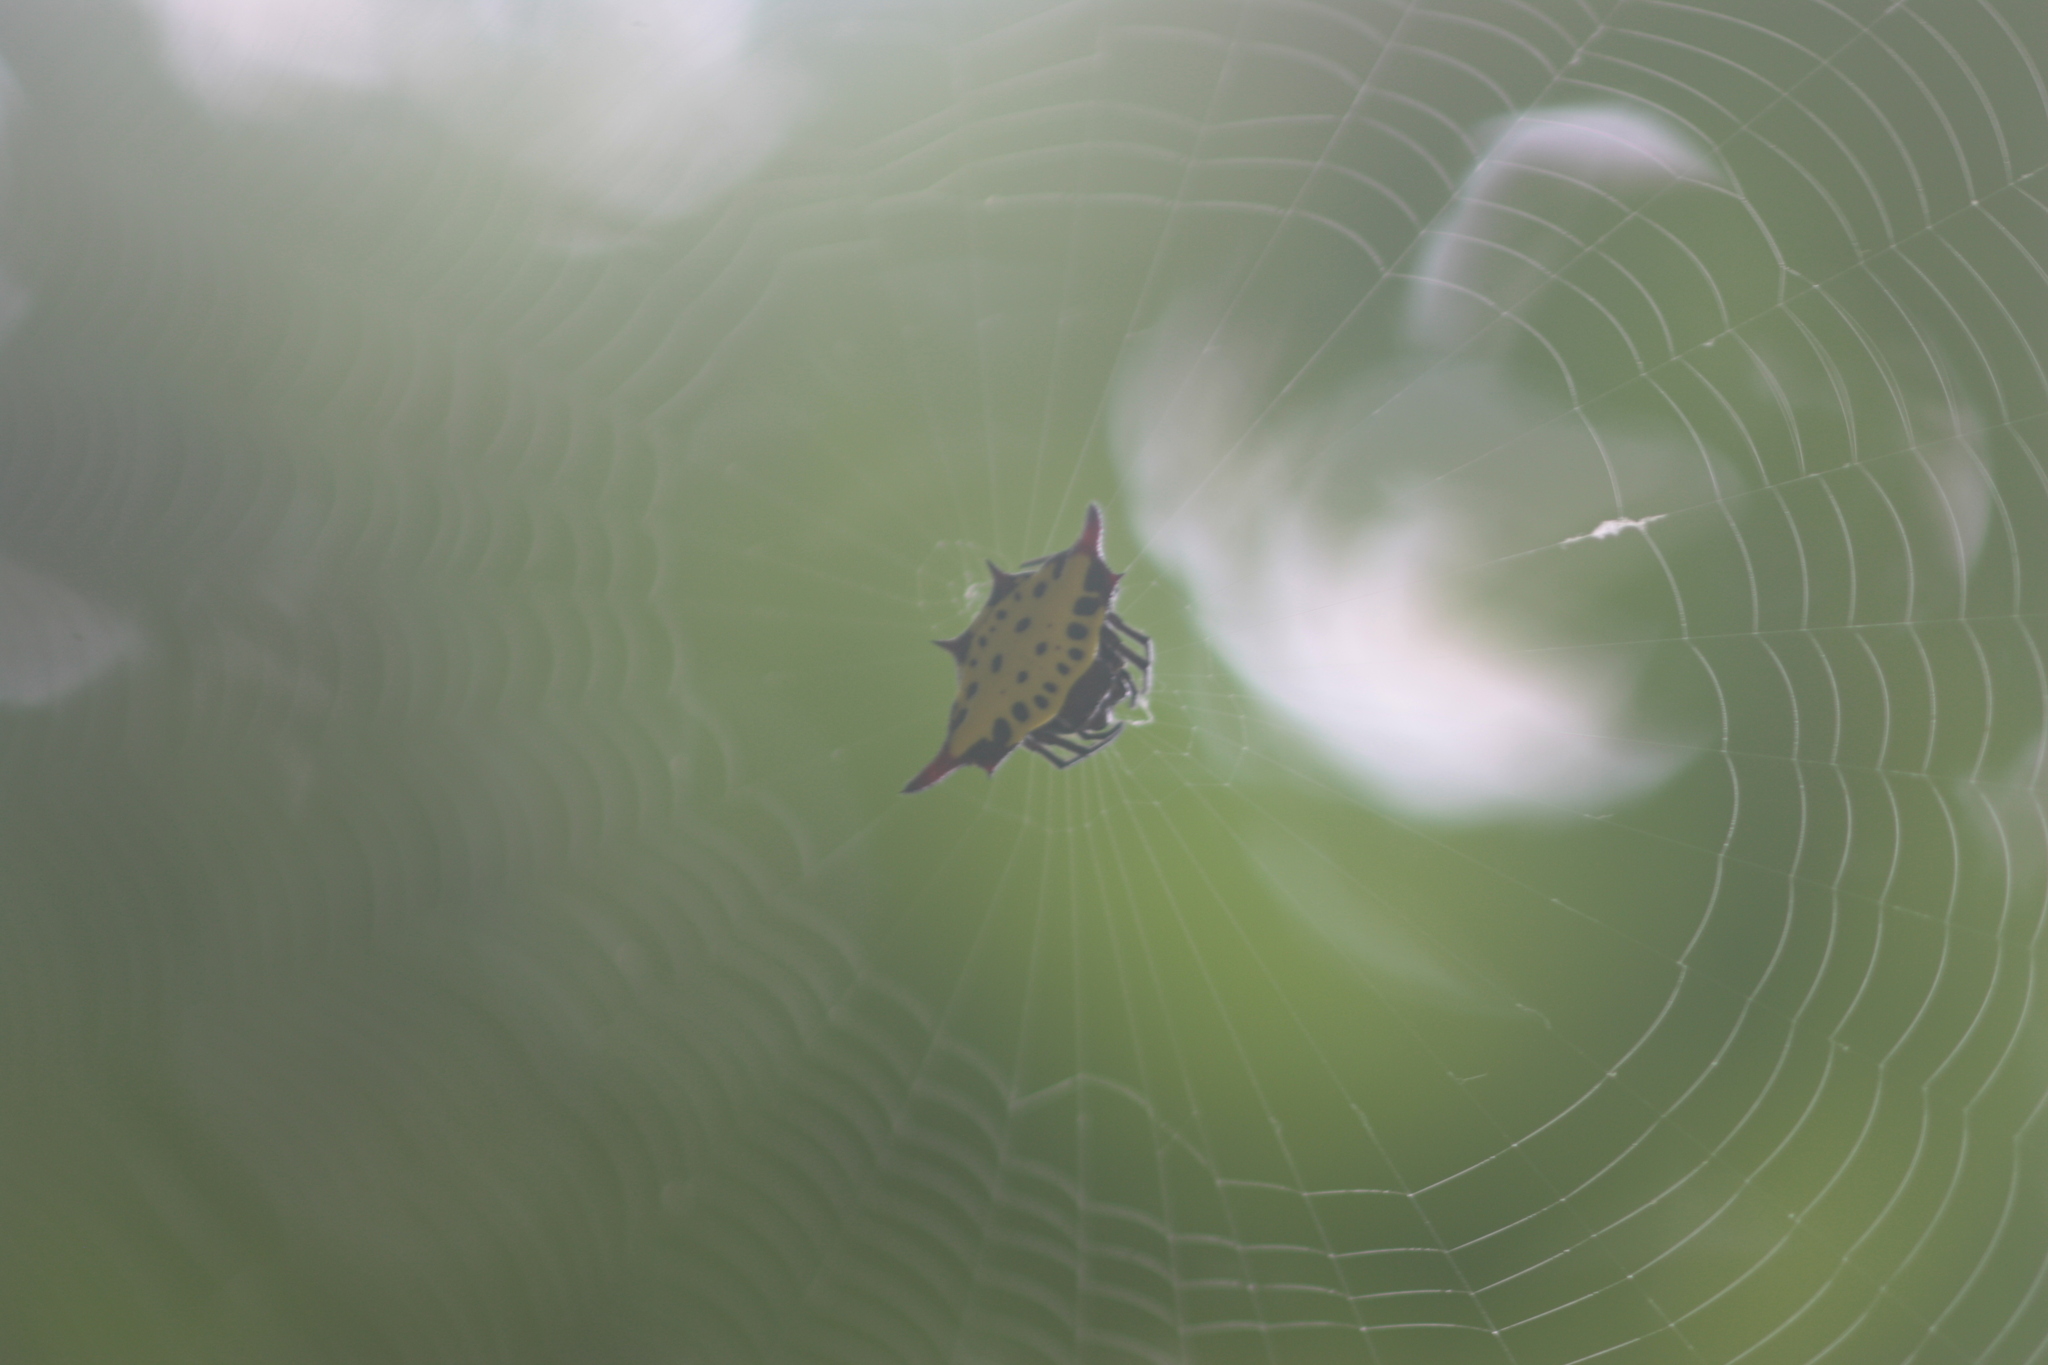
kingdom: Animalia
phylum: Arthropoda
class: Arachnida
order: Araneae
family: Araneidae
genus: Gasteracantha
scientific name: Gasteracantha sauteri
